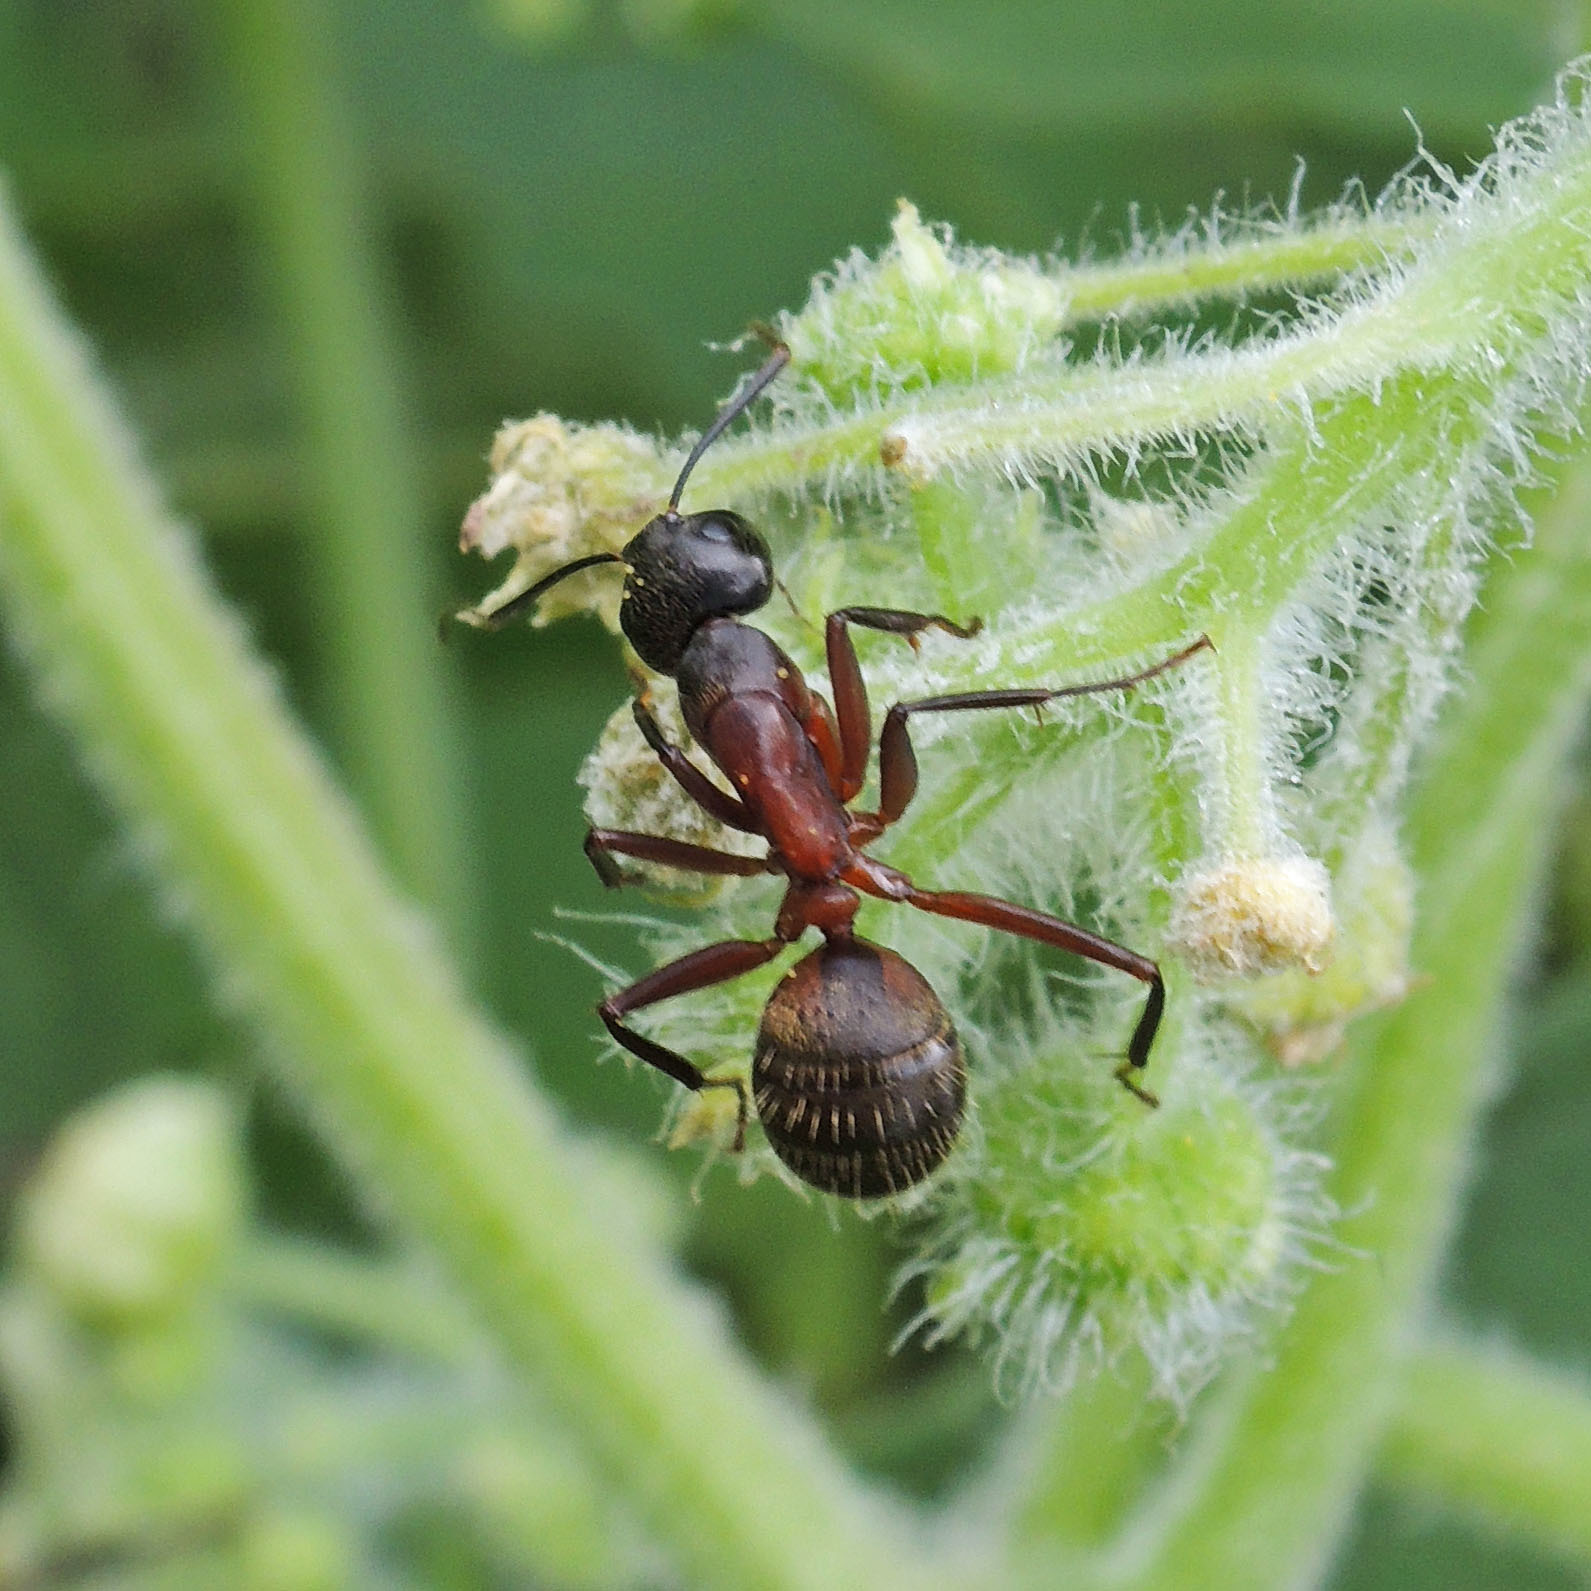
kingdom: Animalia
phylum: Arthropoda
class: Insecta
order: Hymenoptera
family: Formicidae
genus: Camponotus
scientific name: Camponotus chromaiodes
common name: Red carpenter ant
